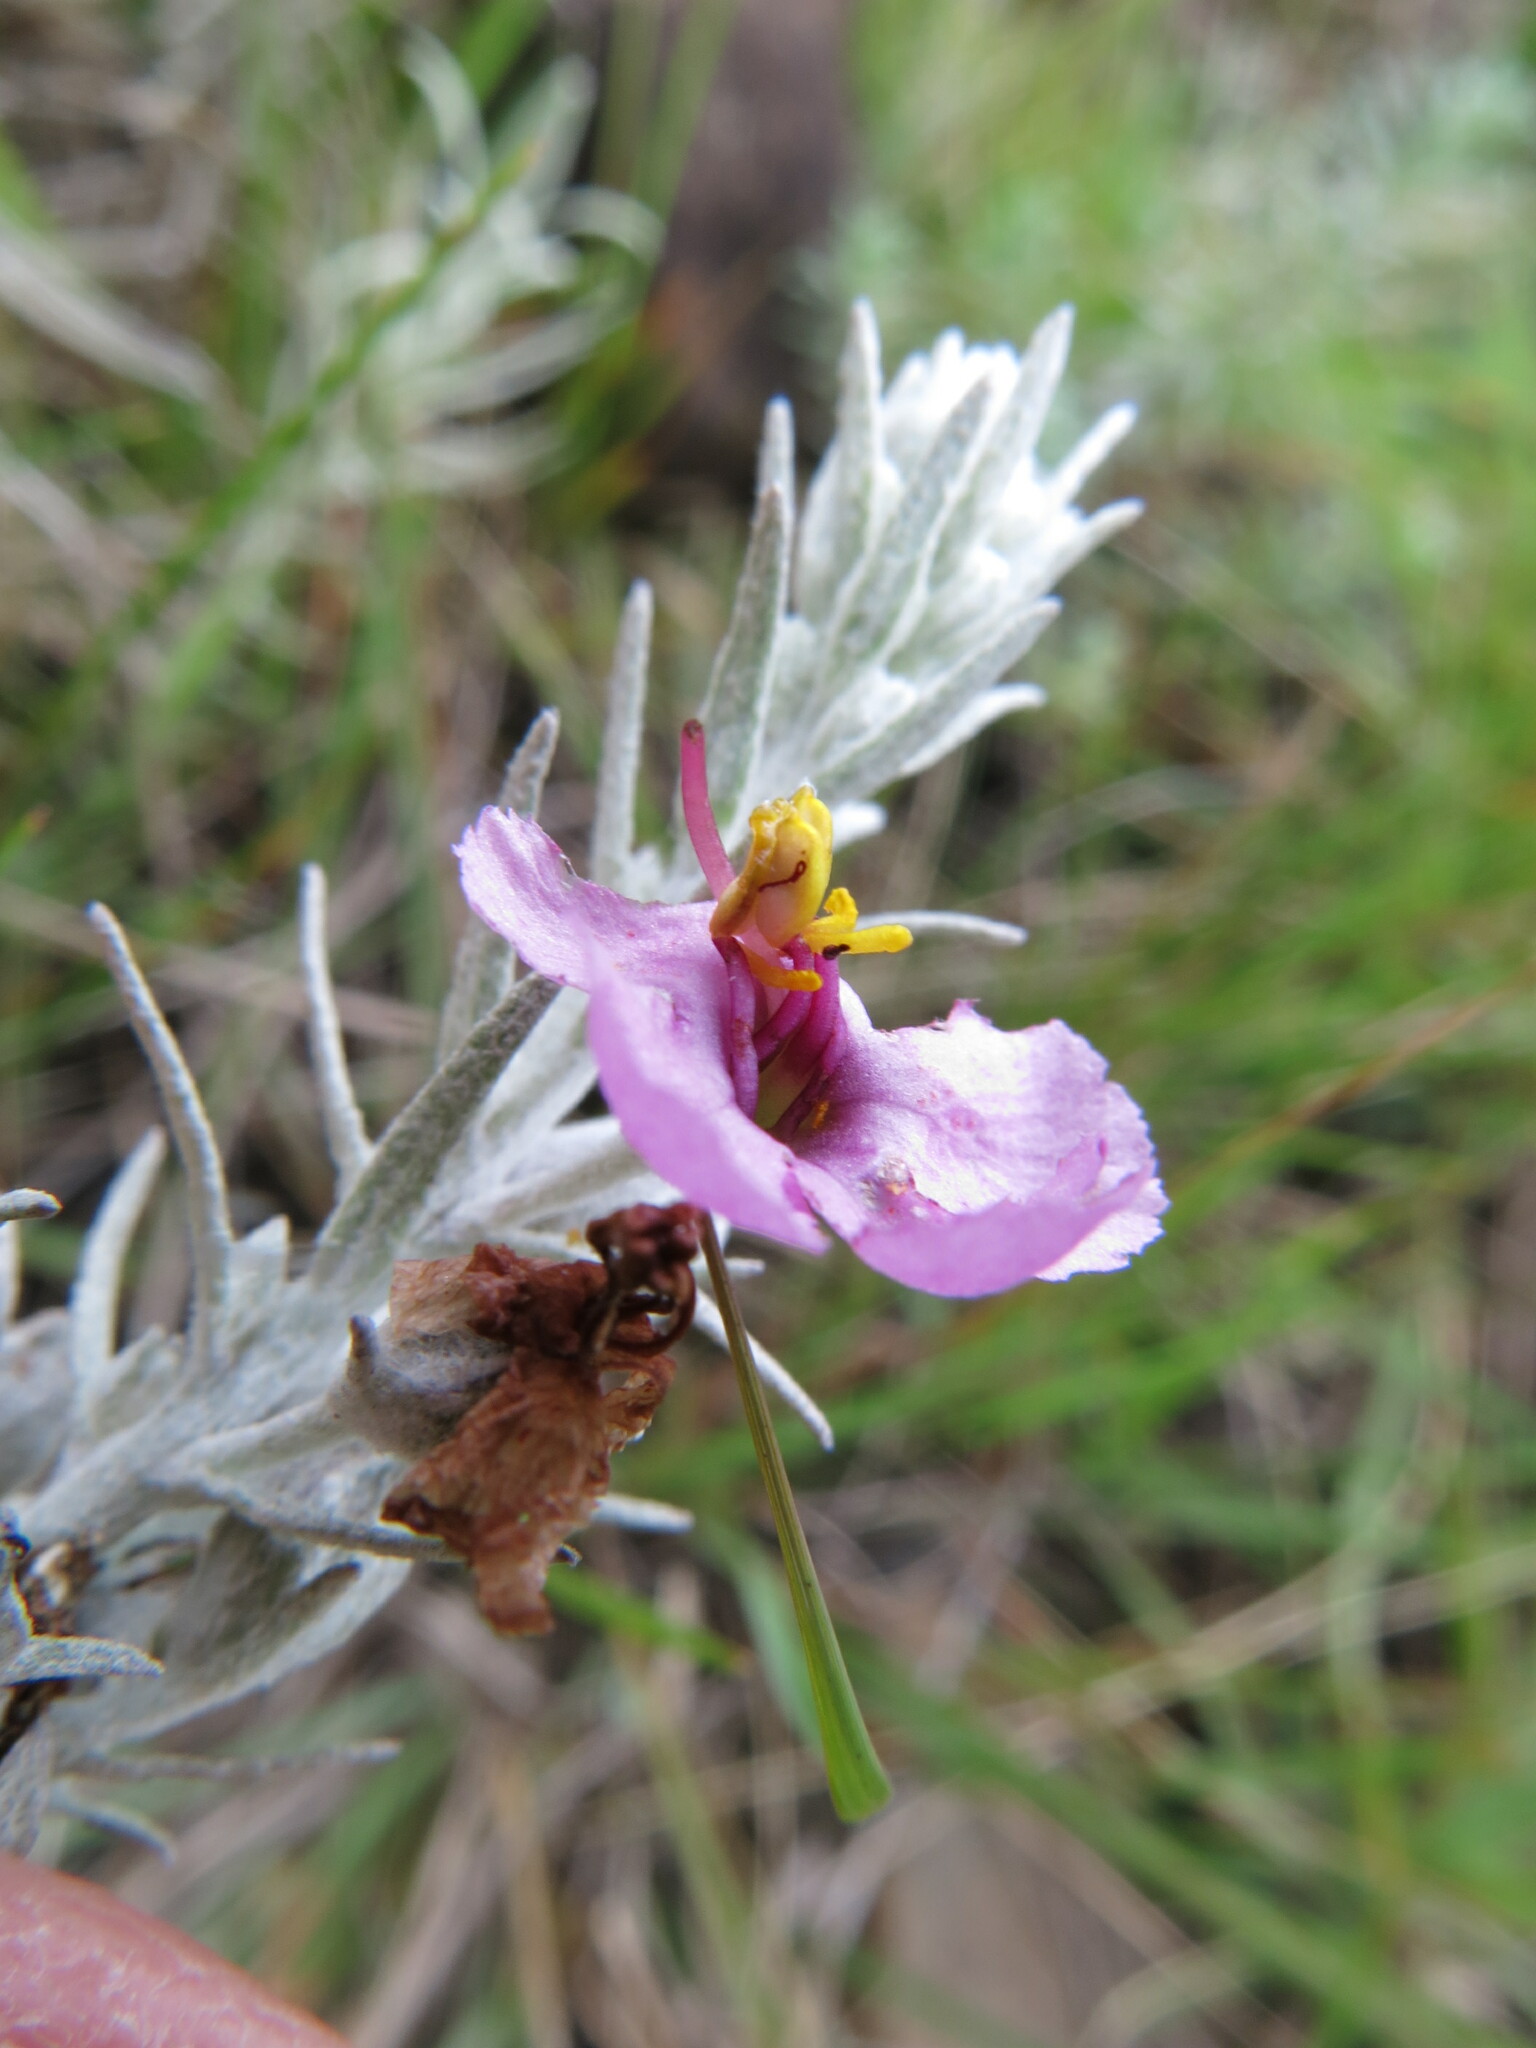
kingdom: Plantae
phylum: Tracheophyta
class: Magnoliopsida
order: Lamiales
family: Orobanchaceae
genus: Sopubia
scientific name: Sopubia cana
